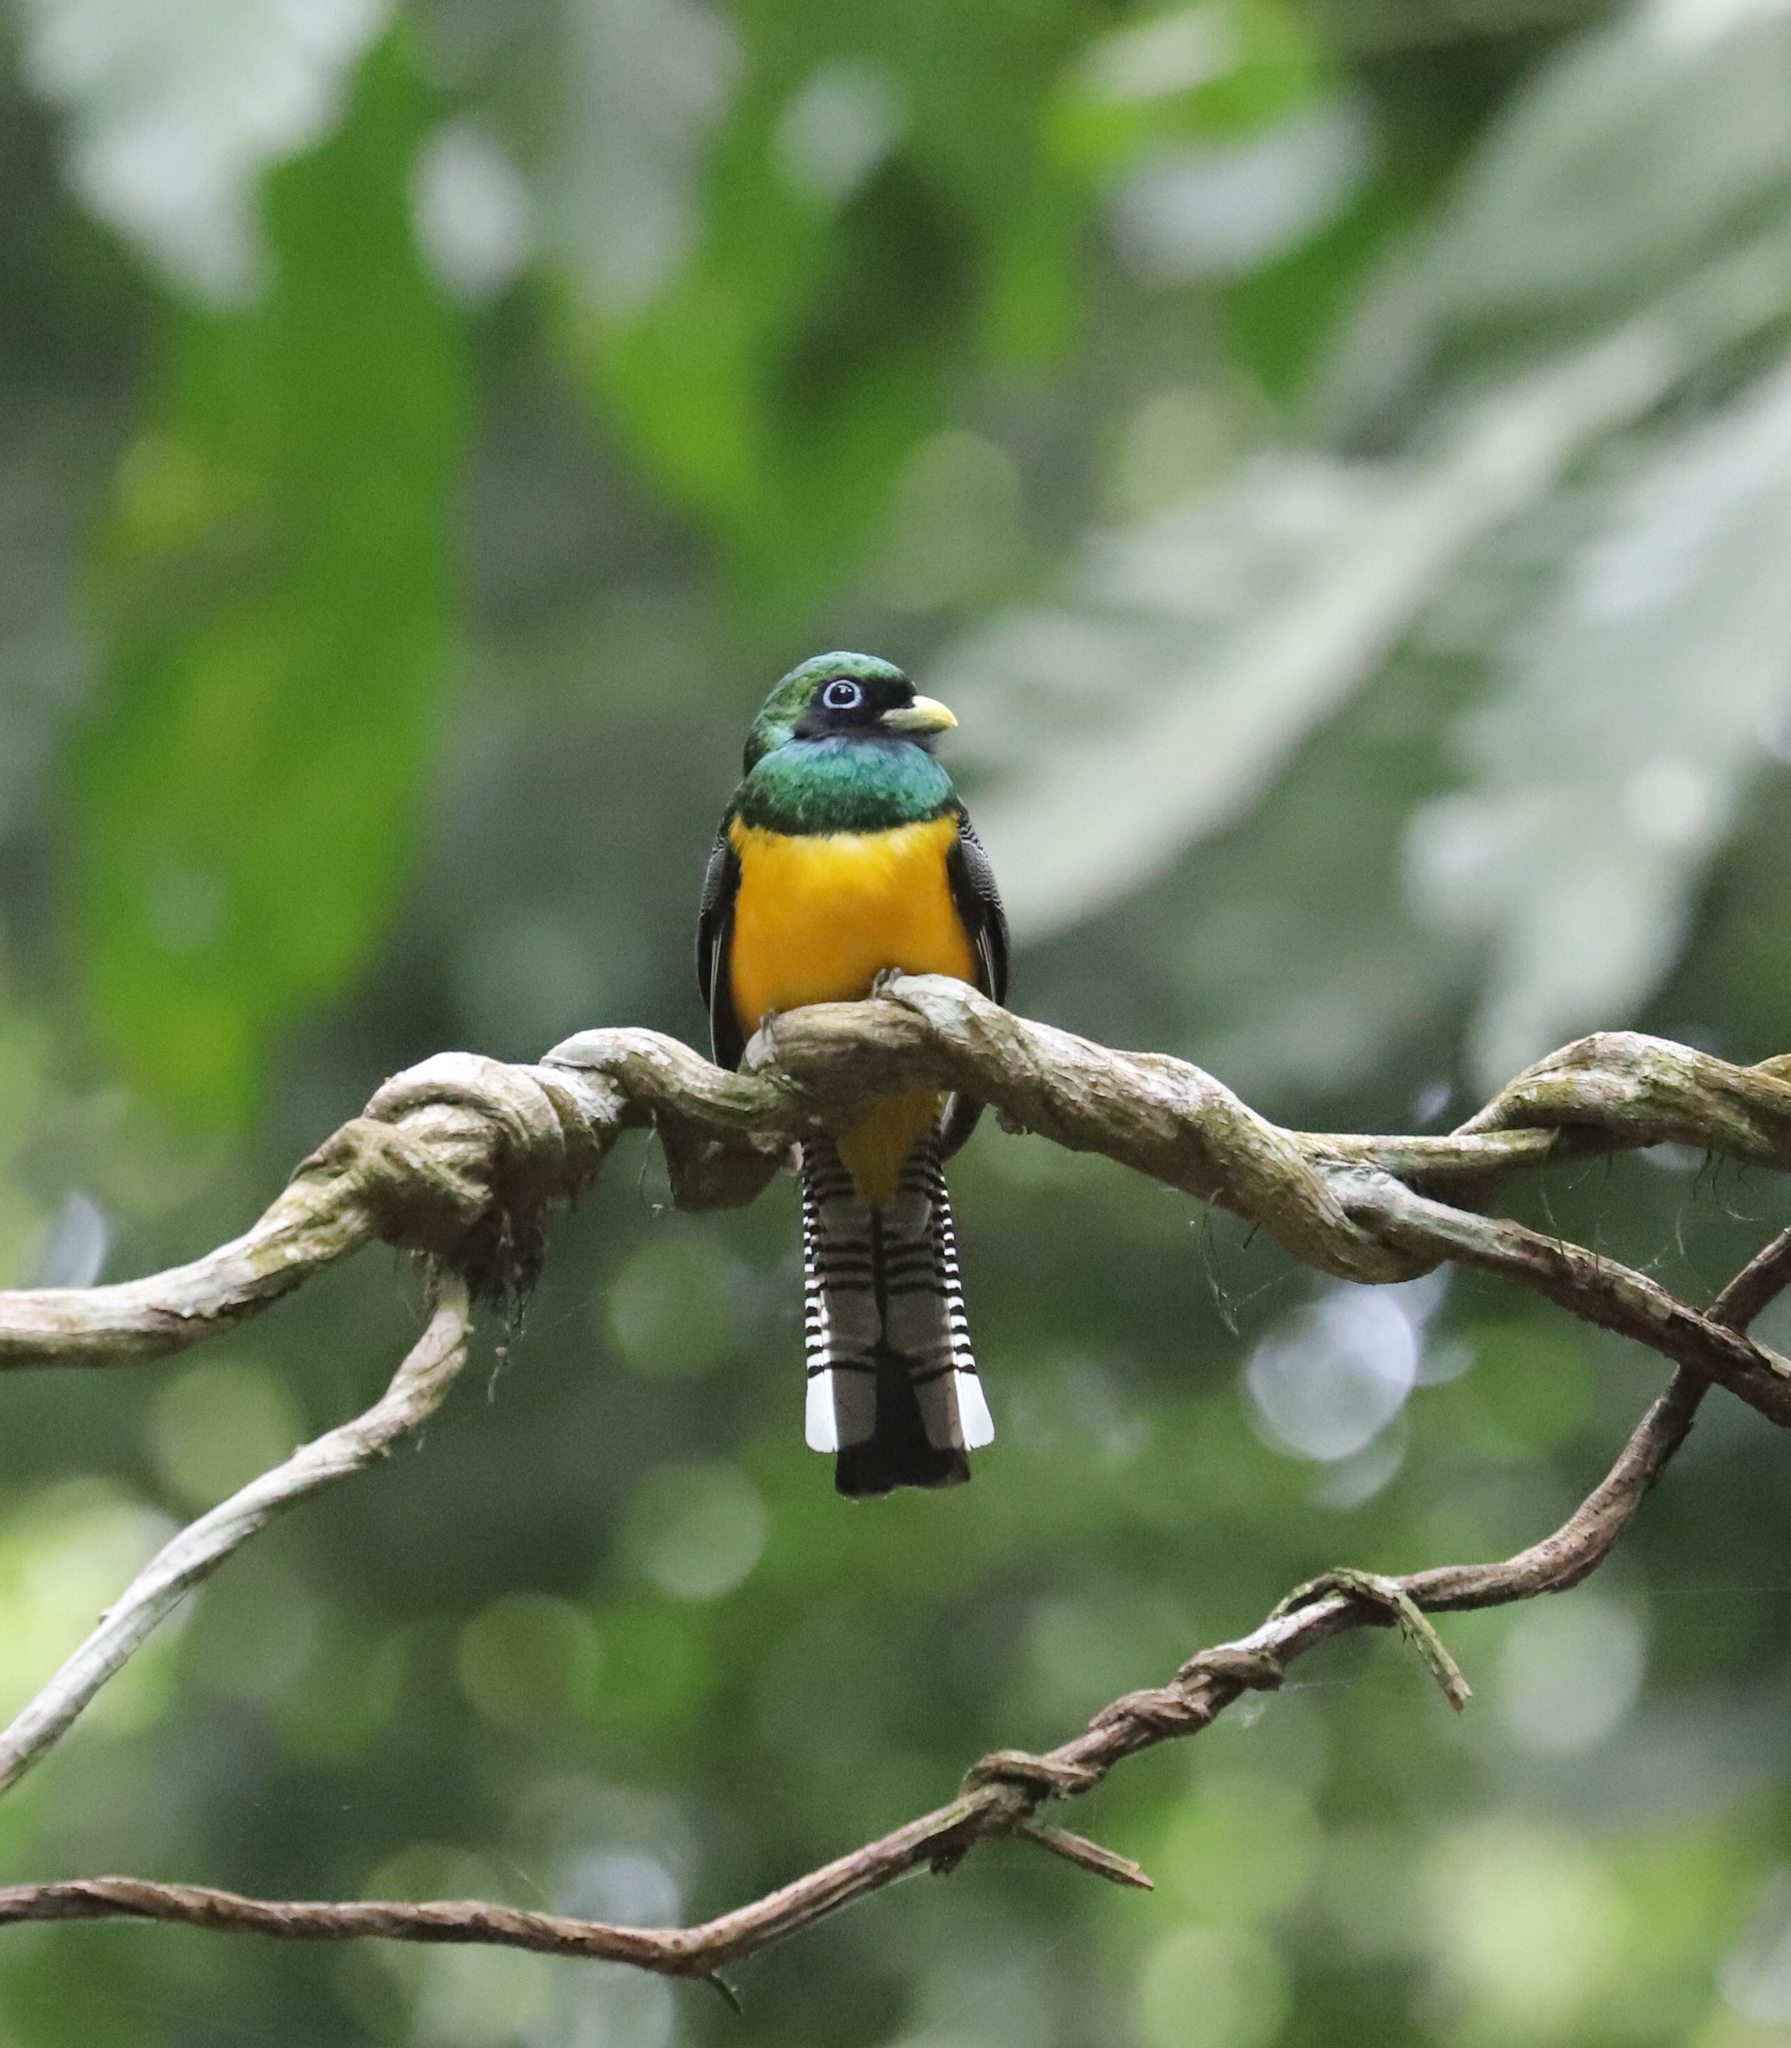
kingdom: Animalia
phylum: Chordata
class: Aves
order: Trogoniformes
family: Trogonidae
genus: Trogon
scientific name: Trogon rufus
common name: Black-throated trogon
